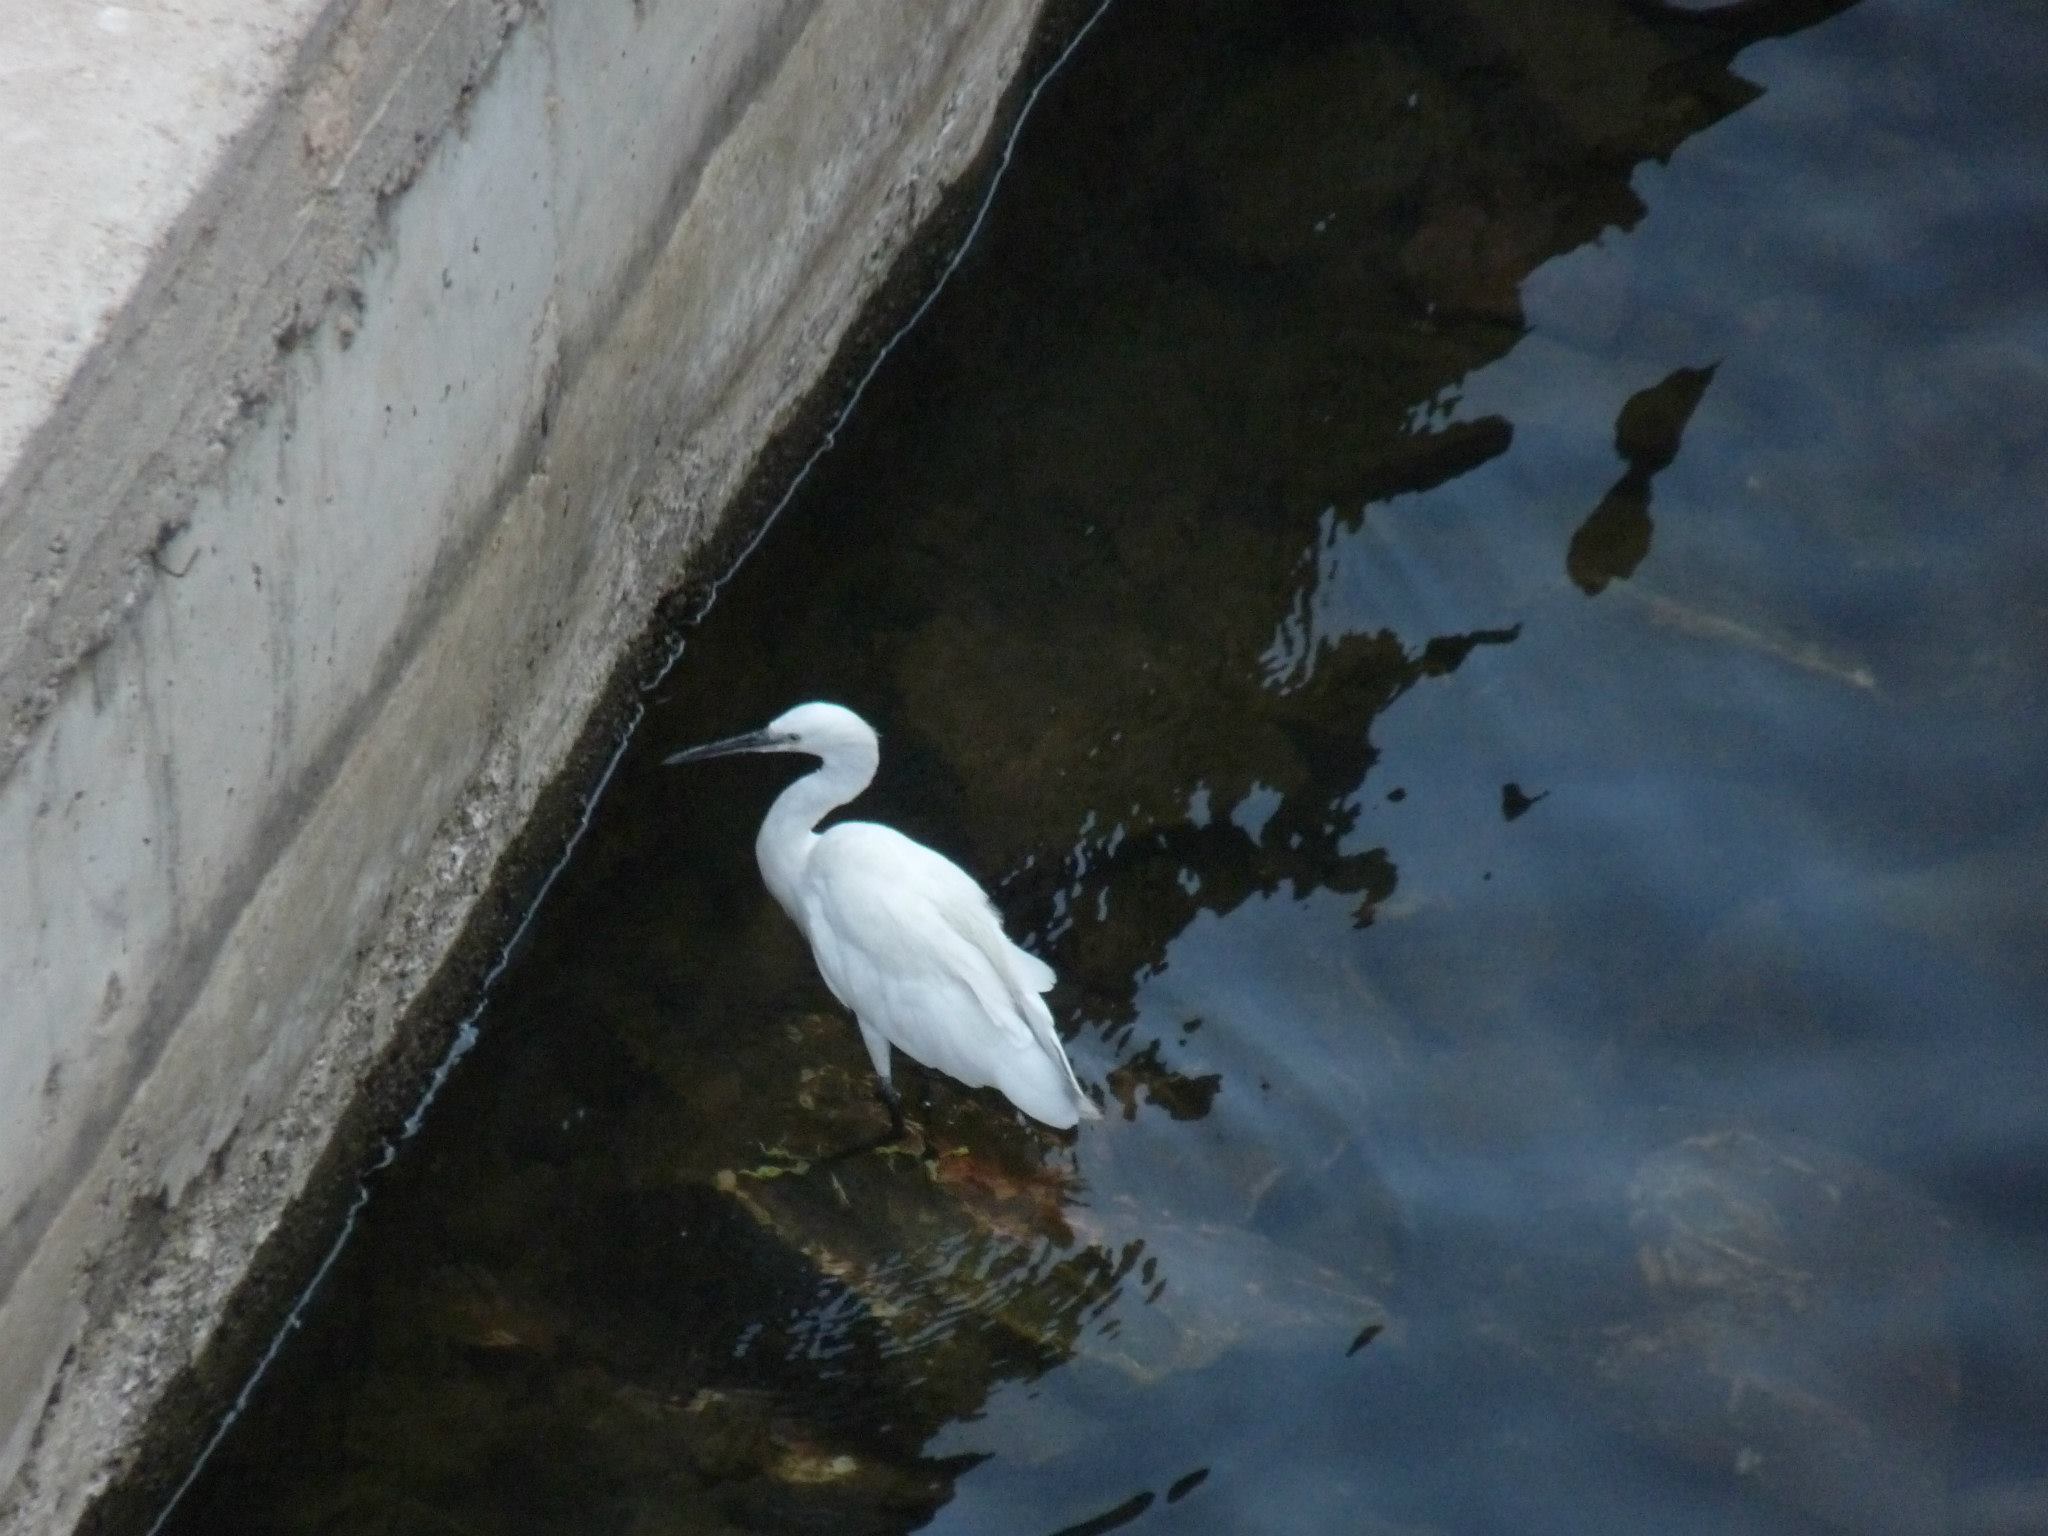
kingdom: Animalia
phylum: Chordata
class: Aves
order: Pelecaniformes
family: Ardeidae
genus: Egretta
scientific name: Egretta garzetta
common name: Little egret
